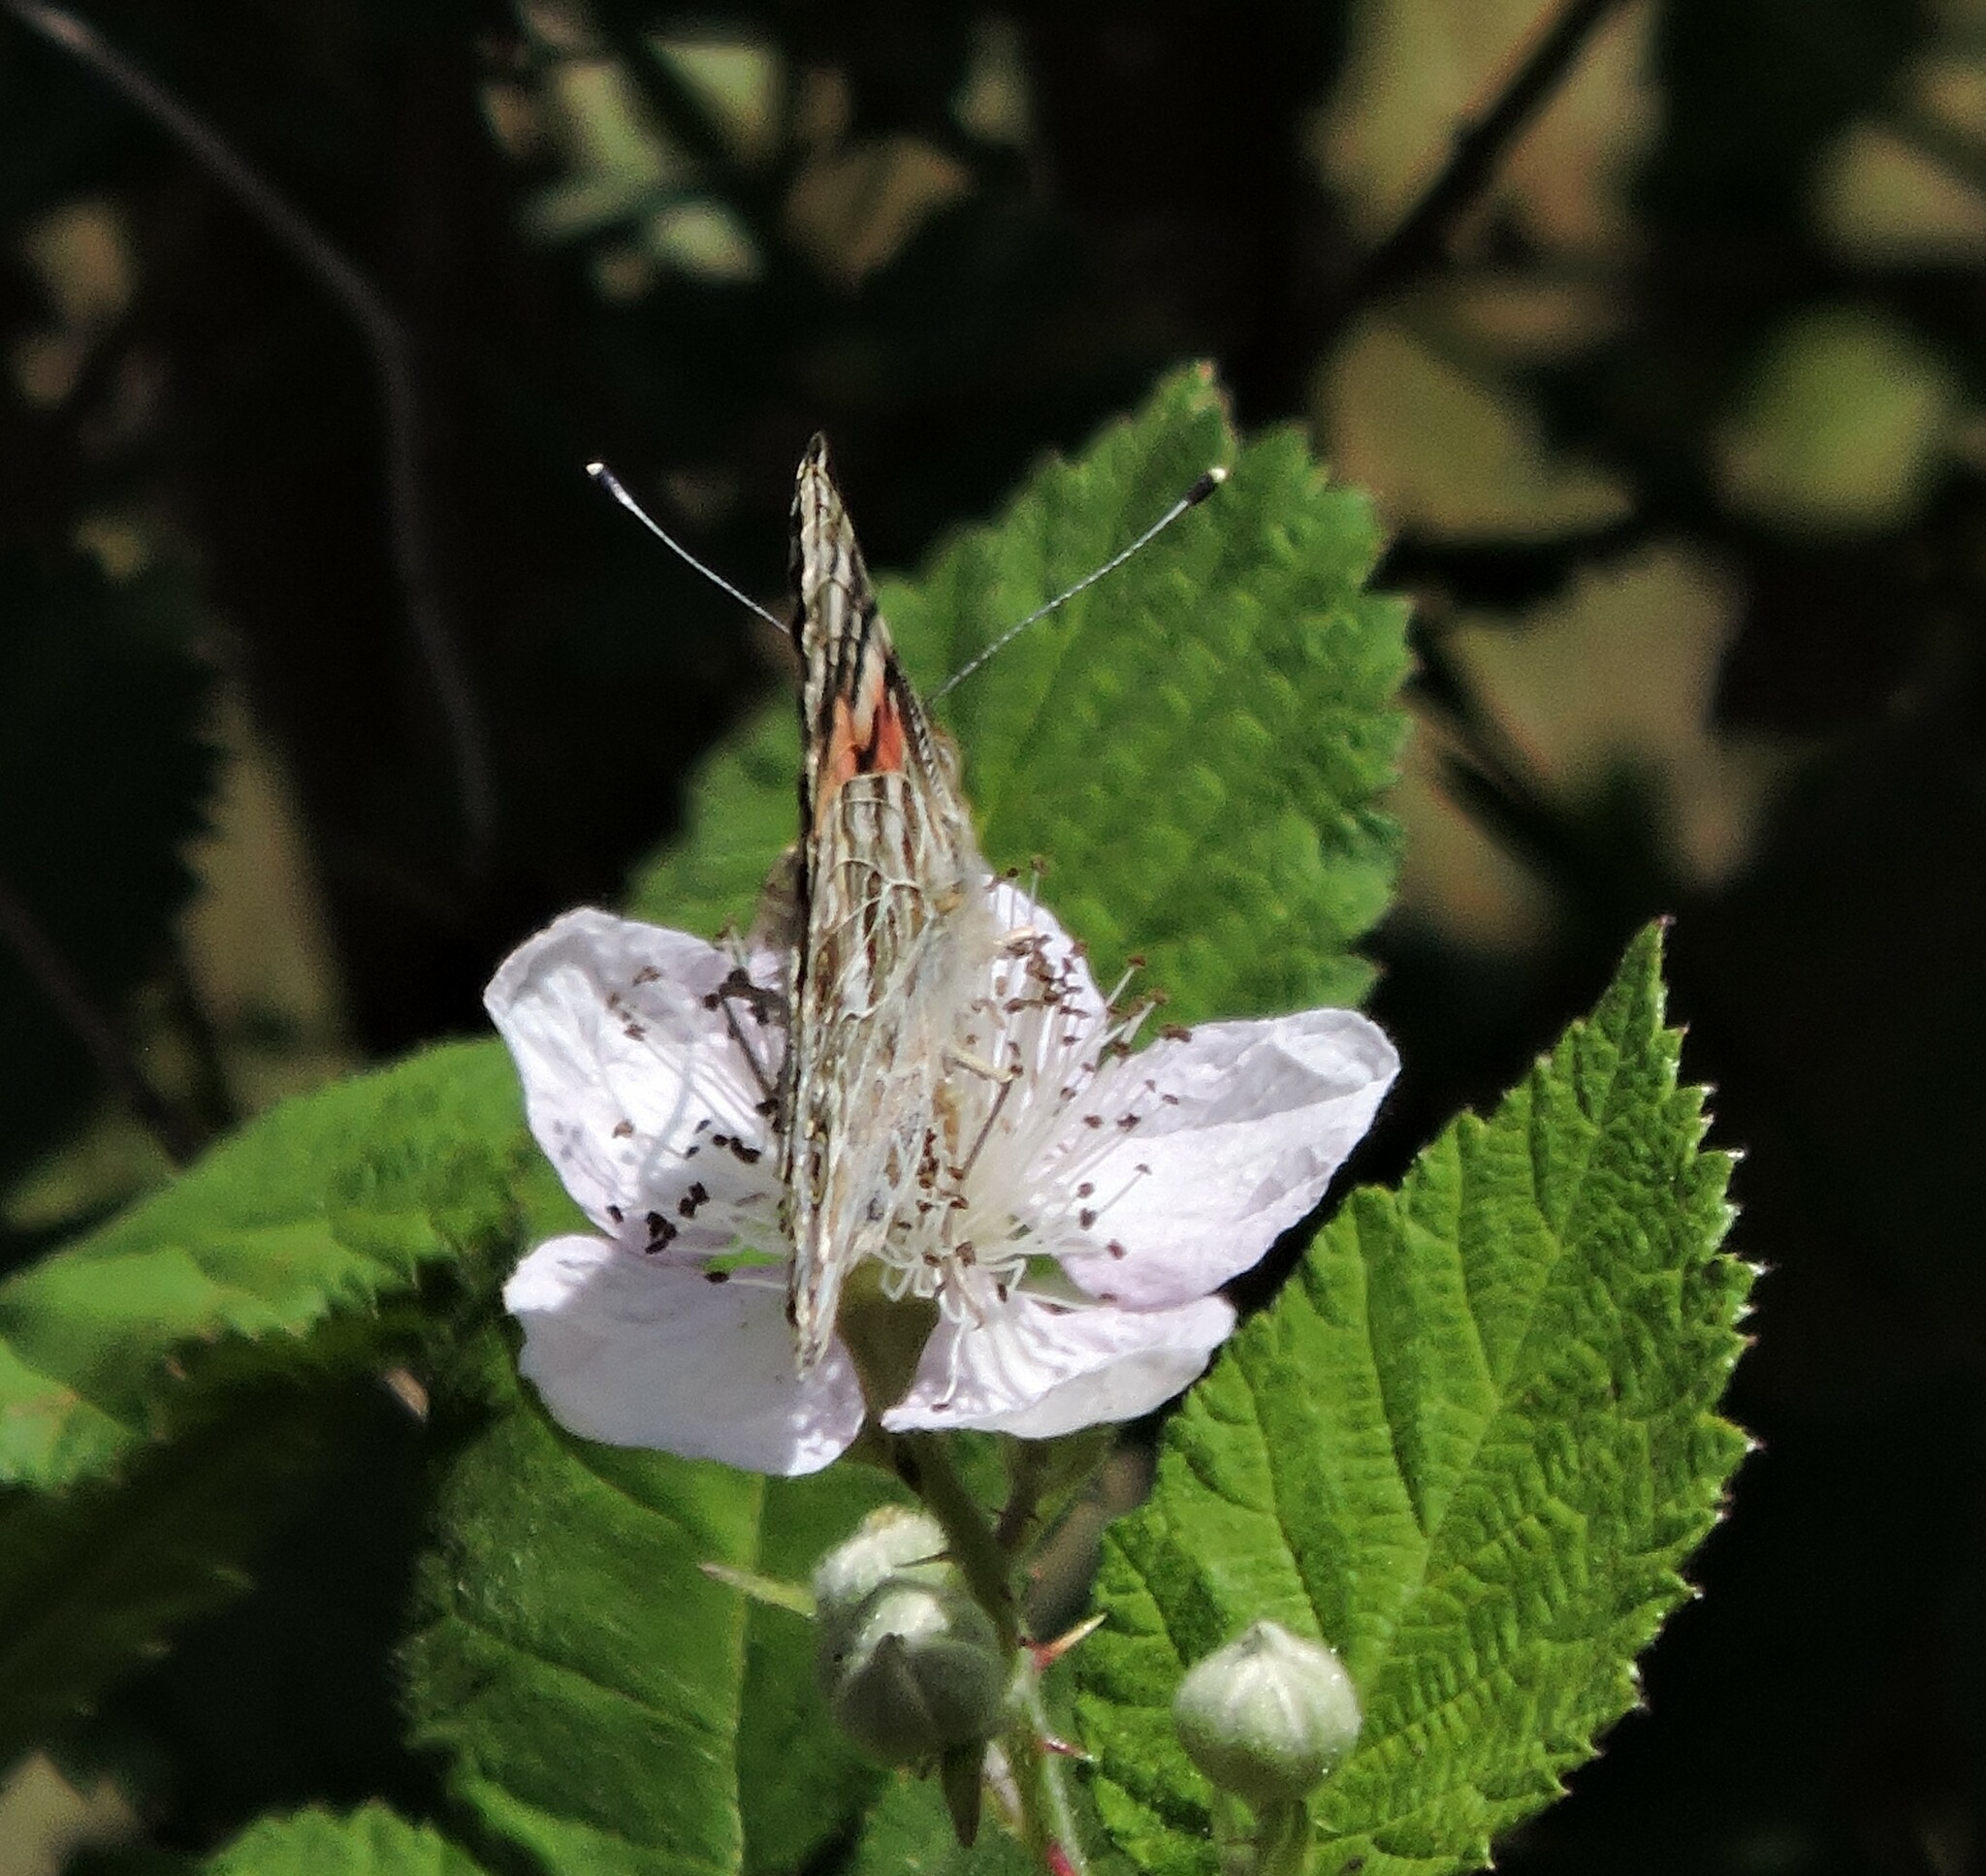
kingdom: Animalia
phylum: Arthropoda
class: Insecta
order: Lepidoptera
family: Nymphalidae
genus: Vanessa
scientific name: Vanessa cardui
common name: Painted lady
